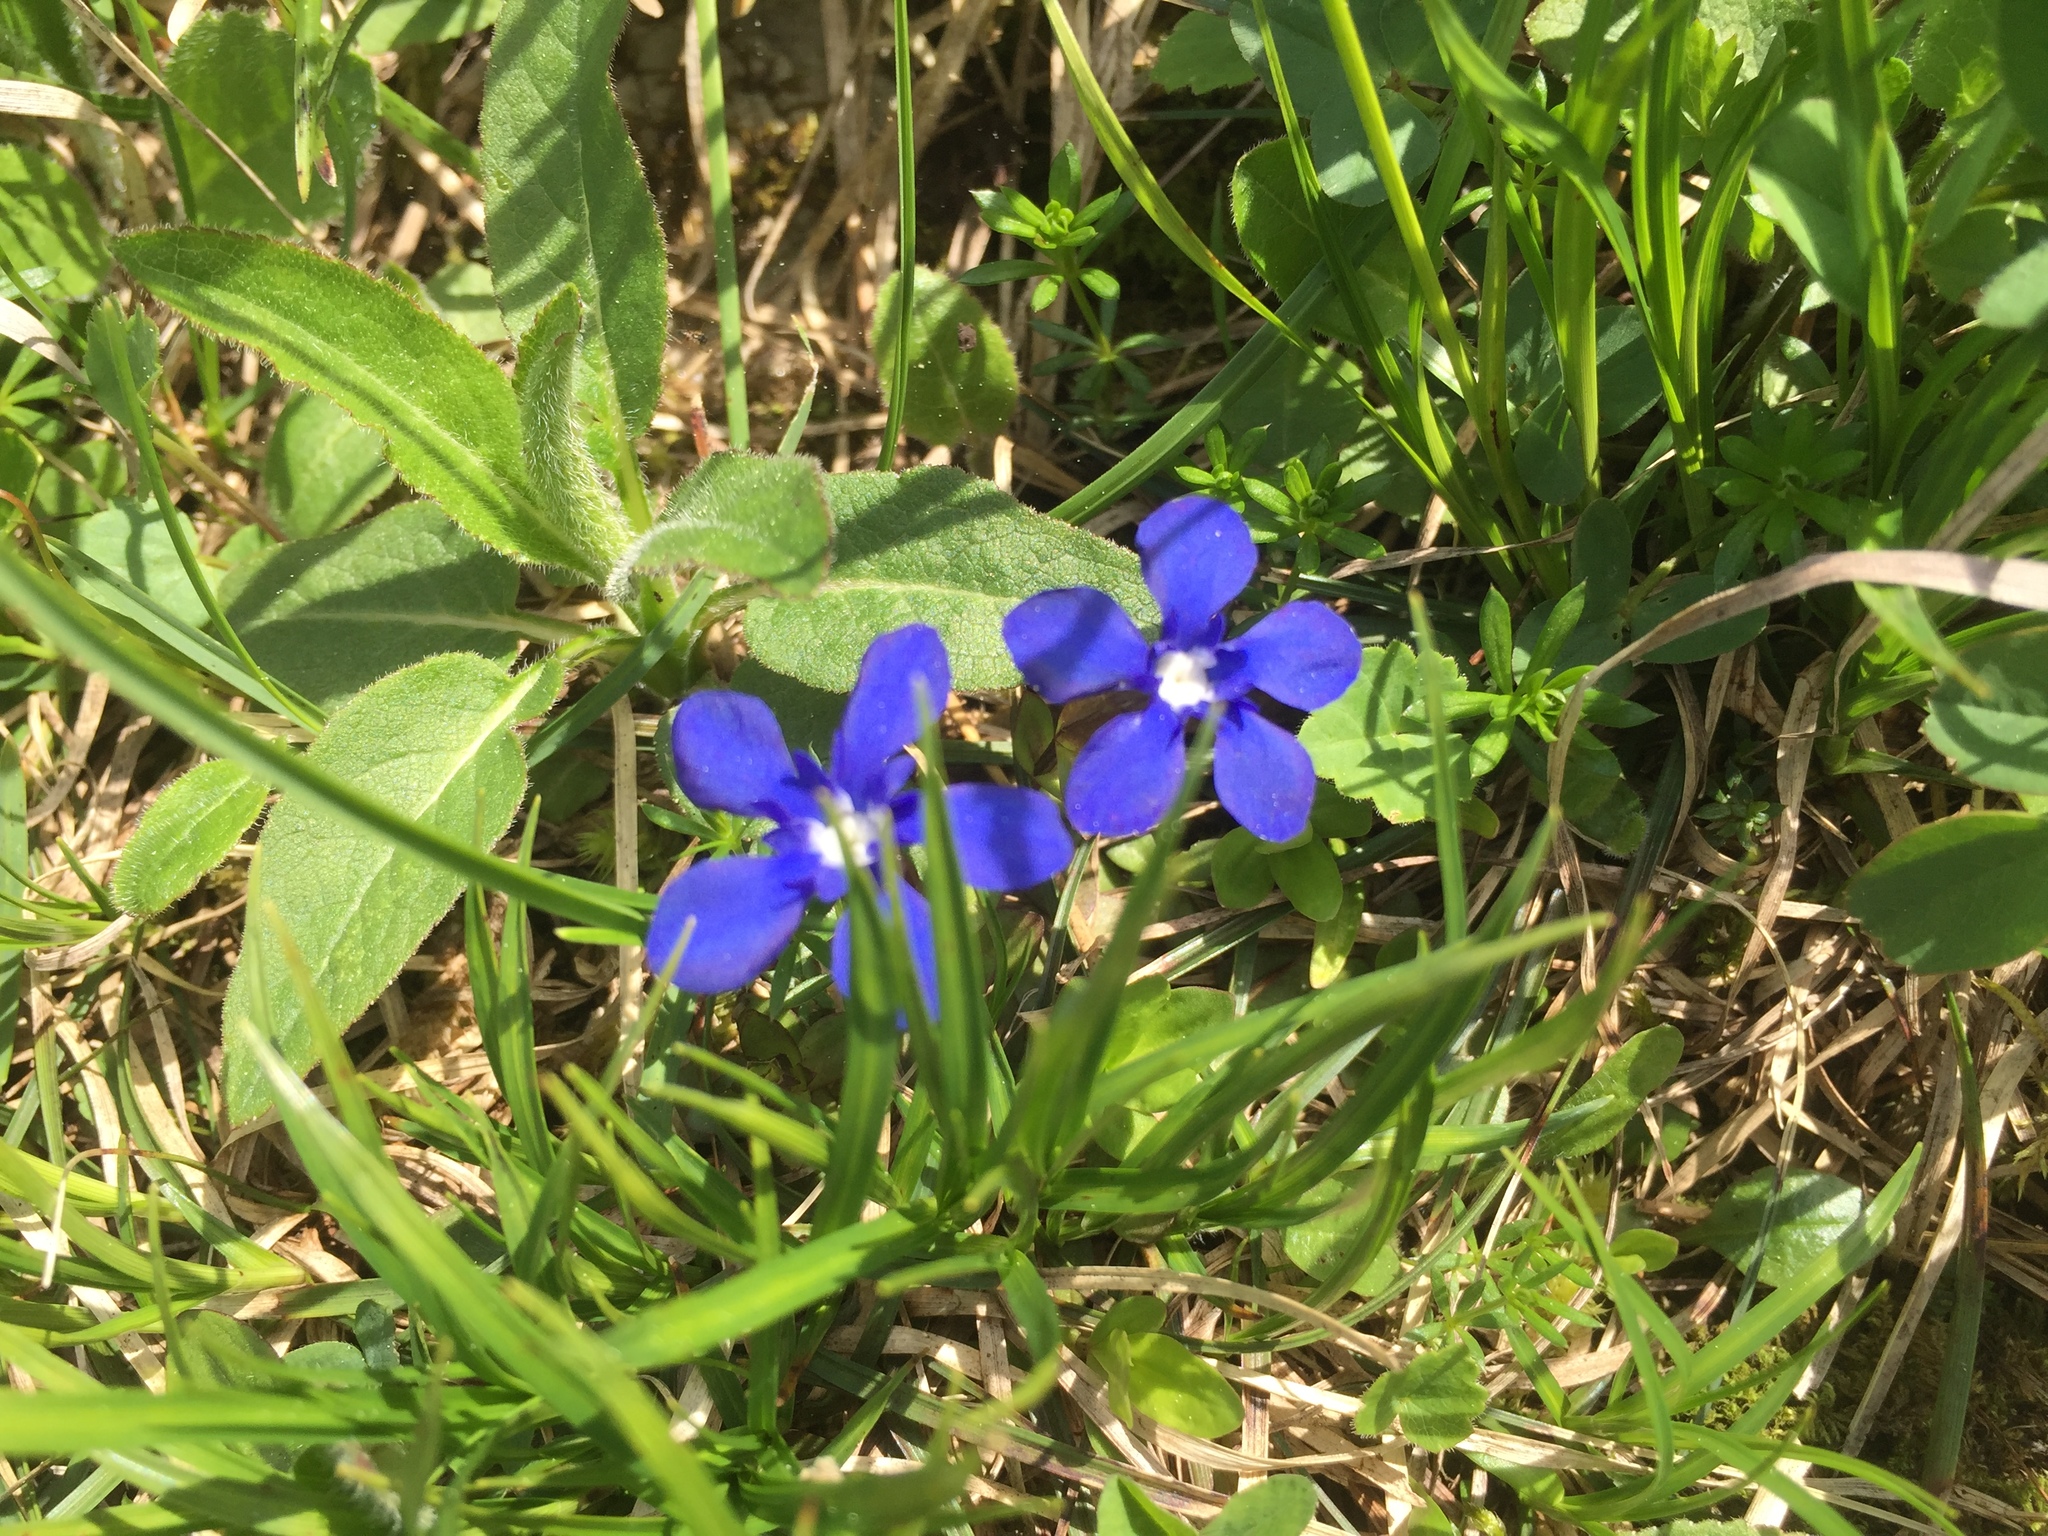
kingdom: Plantae
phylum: Tracheophyta
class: Magnoliopsida
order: Gentianales
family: Gentianaceae
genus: Gentiana
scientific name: Gentiana verna
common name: Spring gentian
